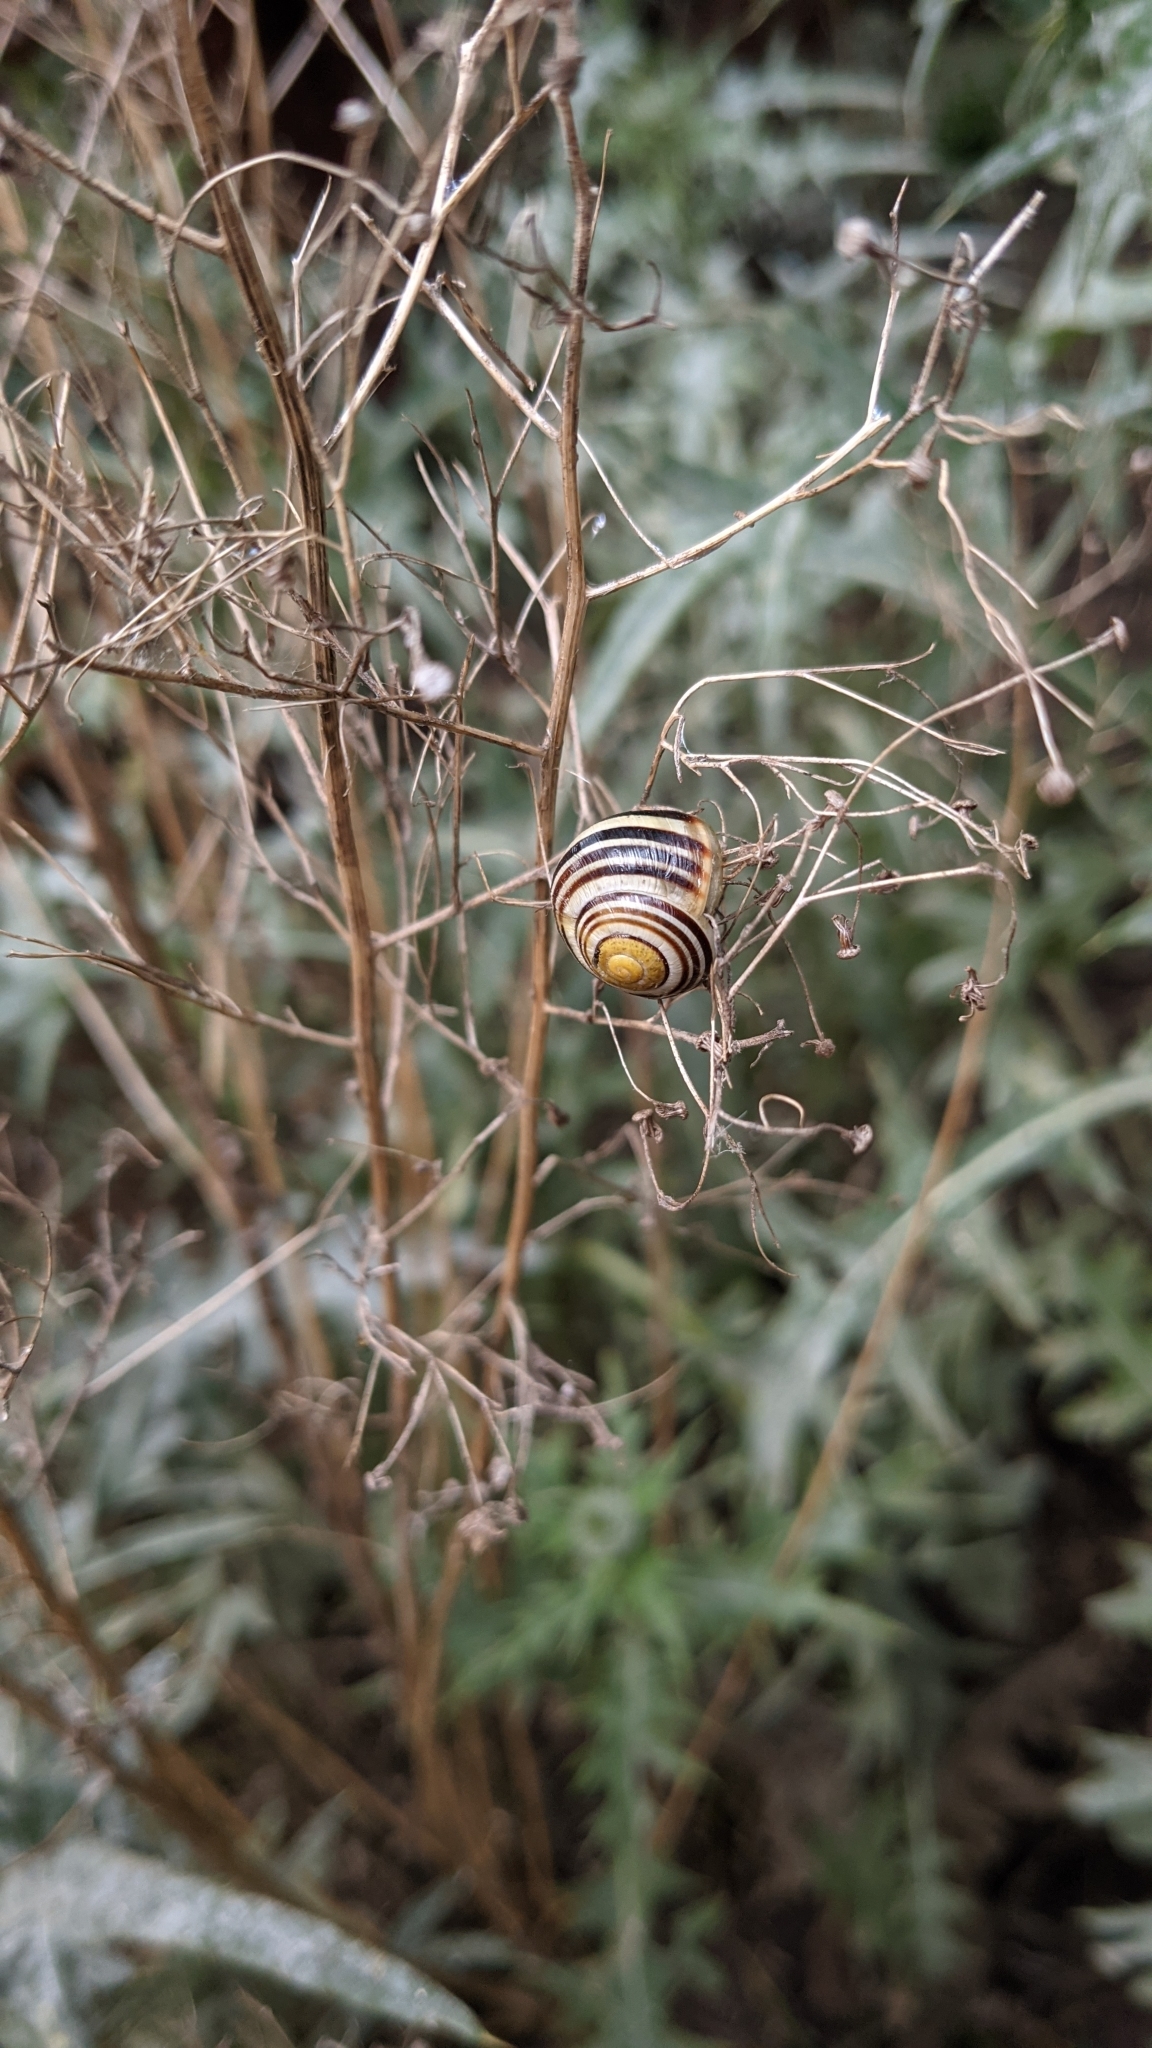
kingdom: Animalia
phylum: Mollusca
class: Gastropoda
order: Stylommatophora
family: Helicidae
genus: Cepaea
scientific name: Cepaea
